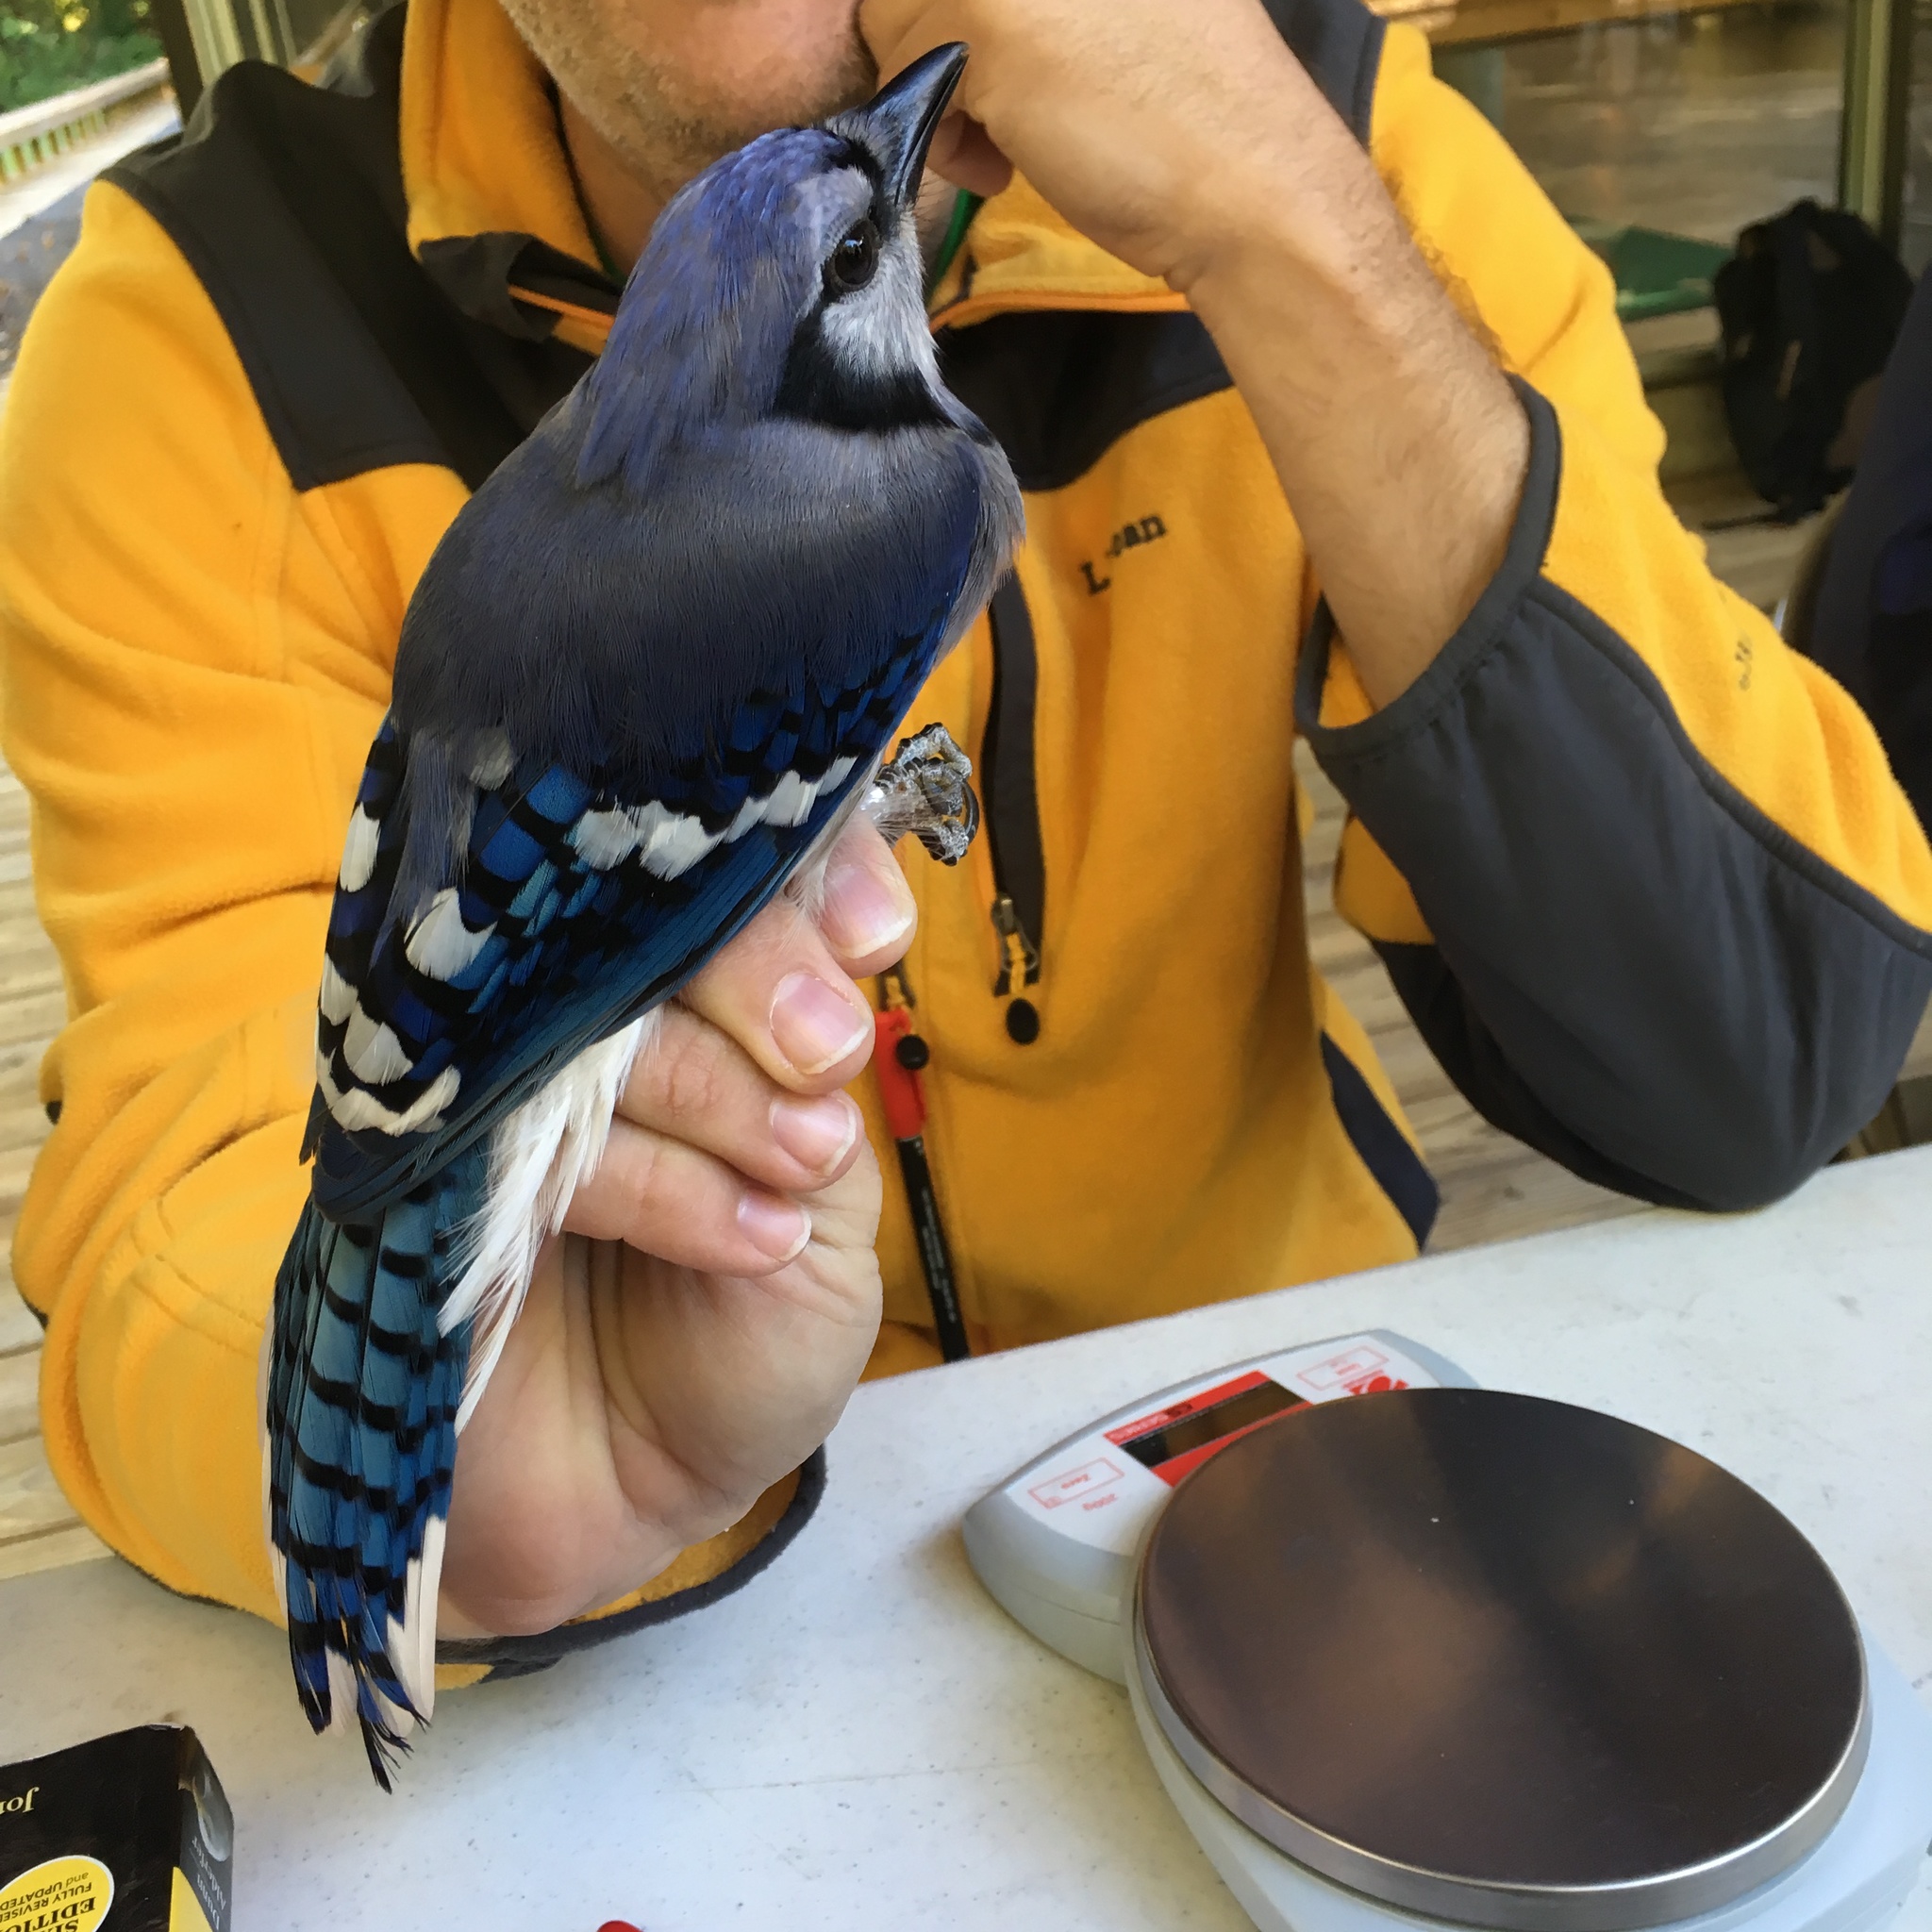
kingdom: Animalia
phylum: Chordata
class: Aves
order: Passeriformes
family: Corvidae
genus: Cyanocitta
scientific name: Cyanocitta cristata
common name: Blue jay
